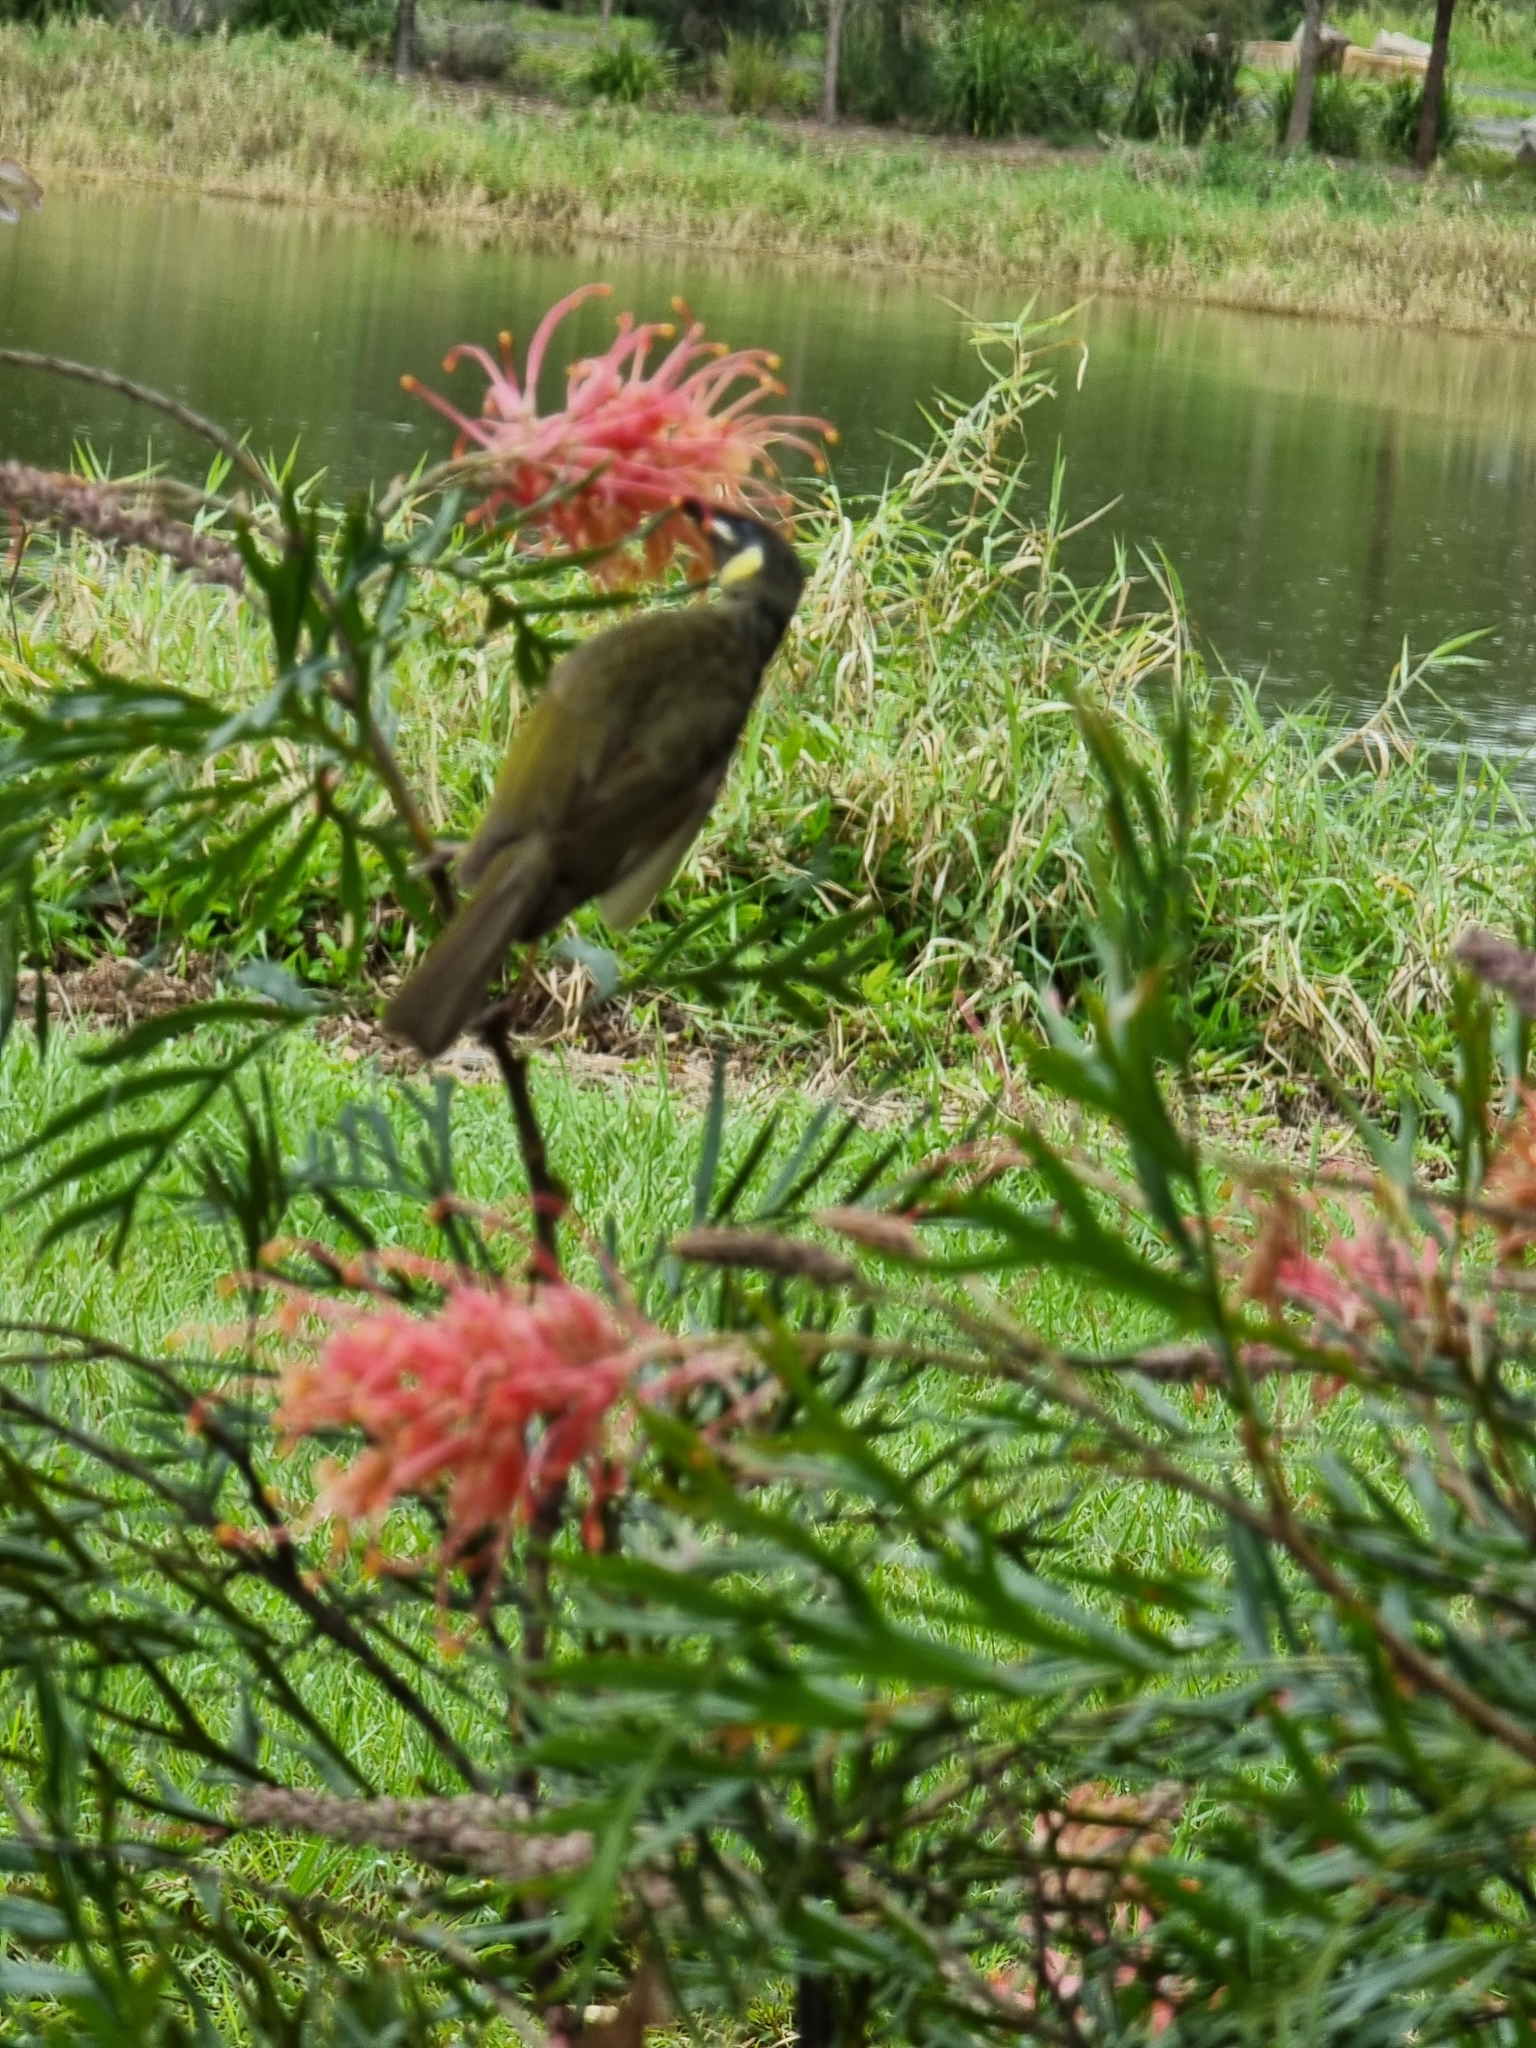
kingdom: Animalia
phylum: Chordata
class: Aves
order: Passeriformes
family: Meliphagidae
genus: Meliphaga
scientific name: Meliphaga lewinii
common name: Lewin's honeyeater
